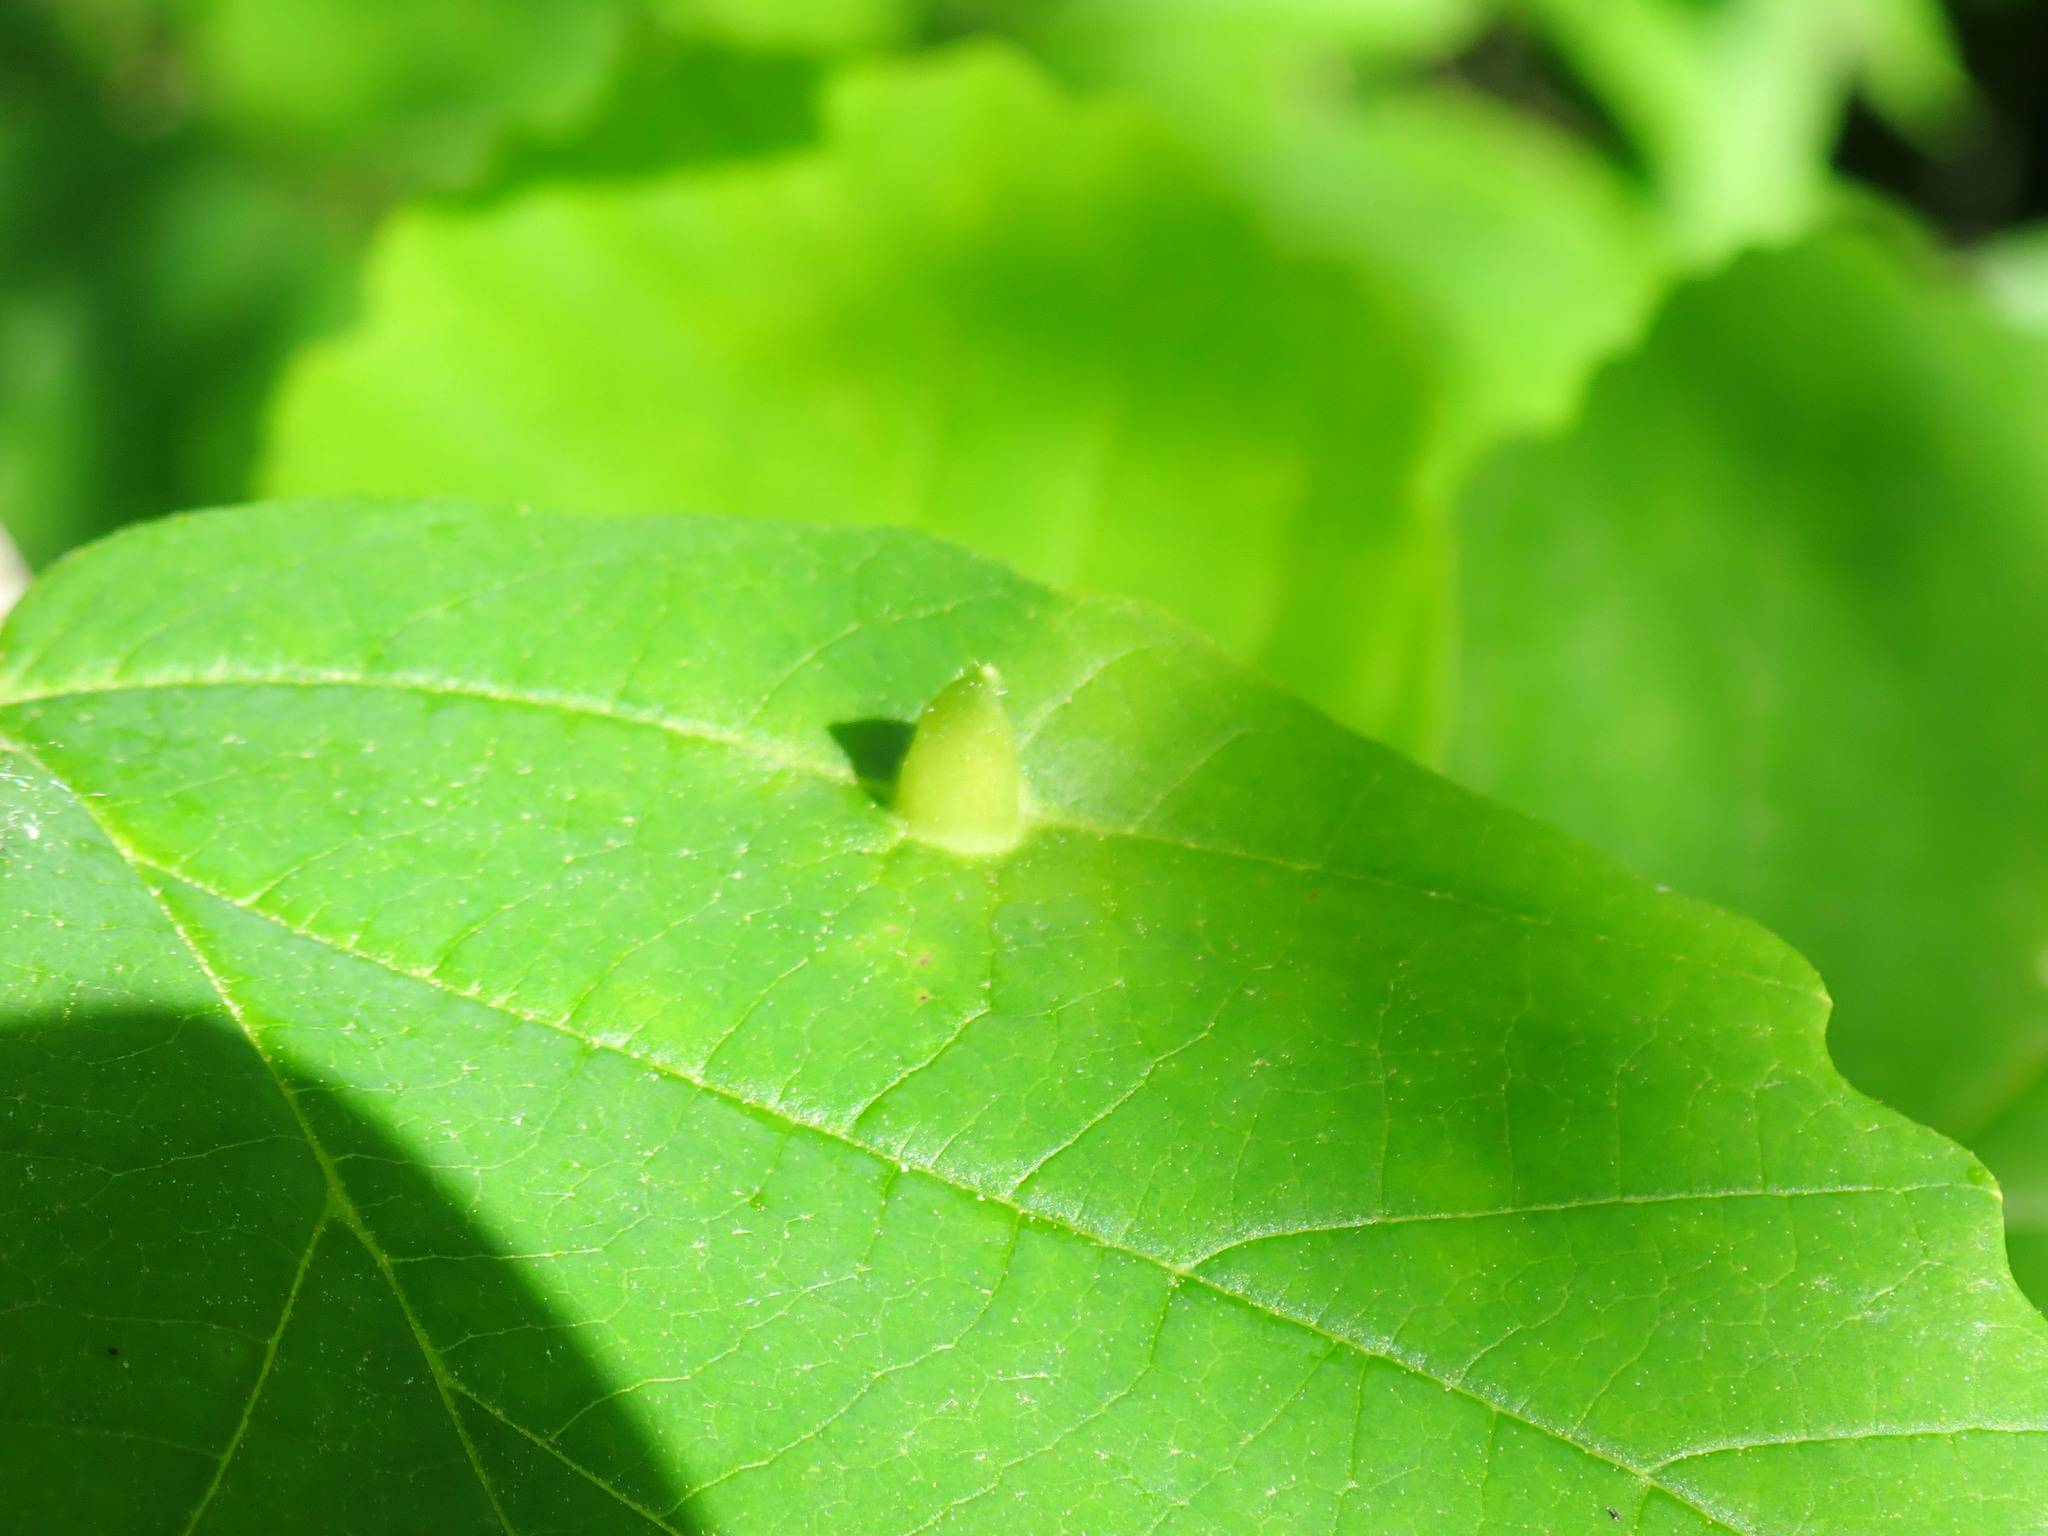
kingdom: Animalia
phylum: Arthropoda
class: Insecta
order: Hemiptera
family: Aphididae
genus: Hormaphis
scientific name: Hormaphis hamamelidis
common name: Witch-hazel cone gall aphid
